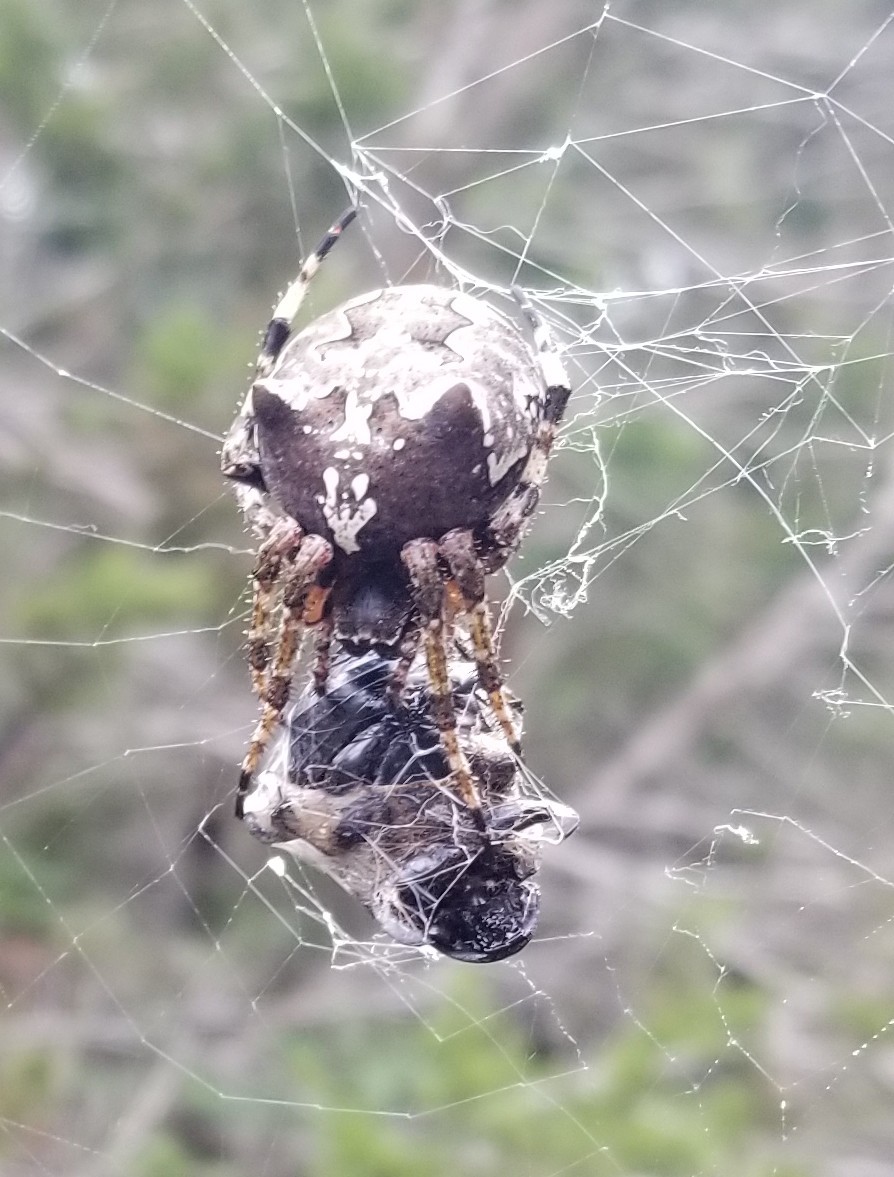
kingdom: Animalia
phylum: Arthropoda
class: Arachnida
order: Araneae
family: Araneidae
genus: Araneus
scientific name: Araneus bicentenarius
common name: Giant lichen orbweaver
